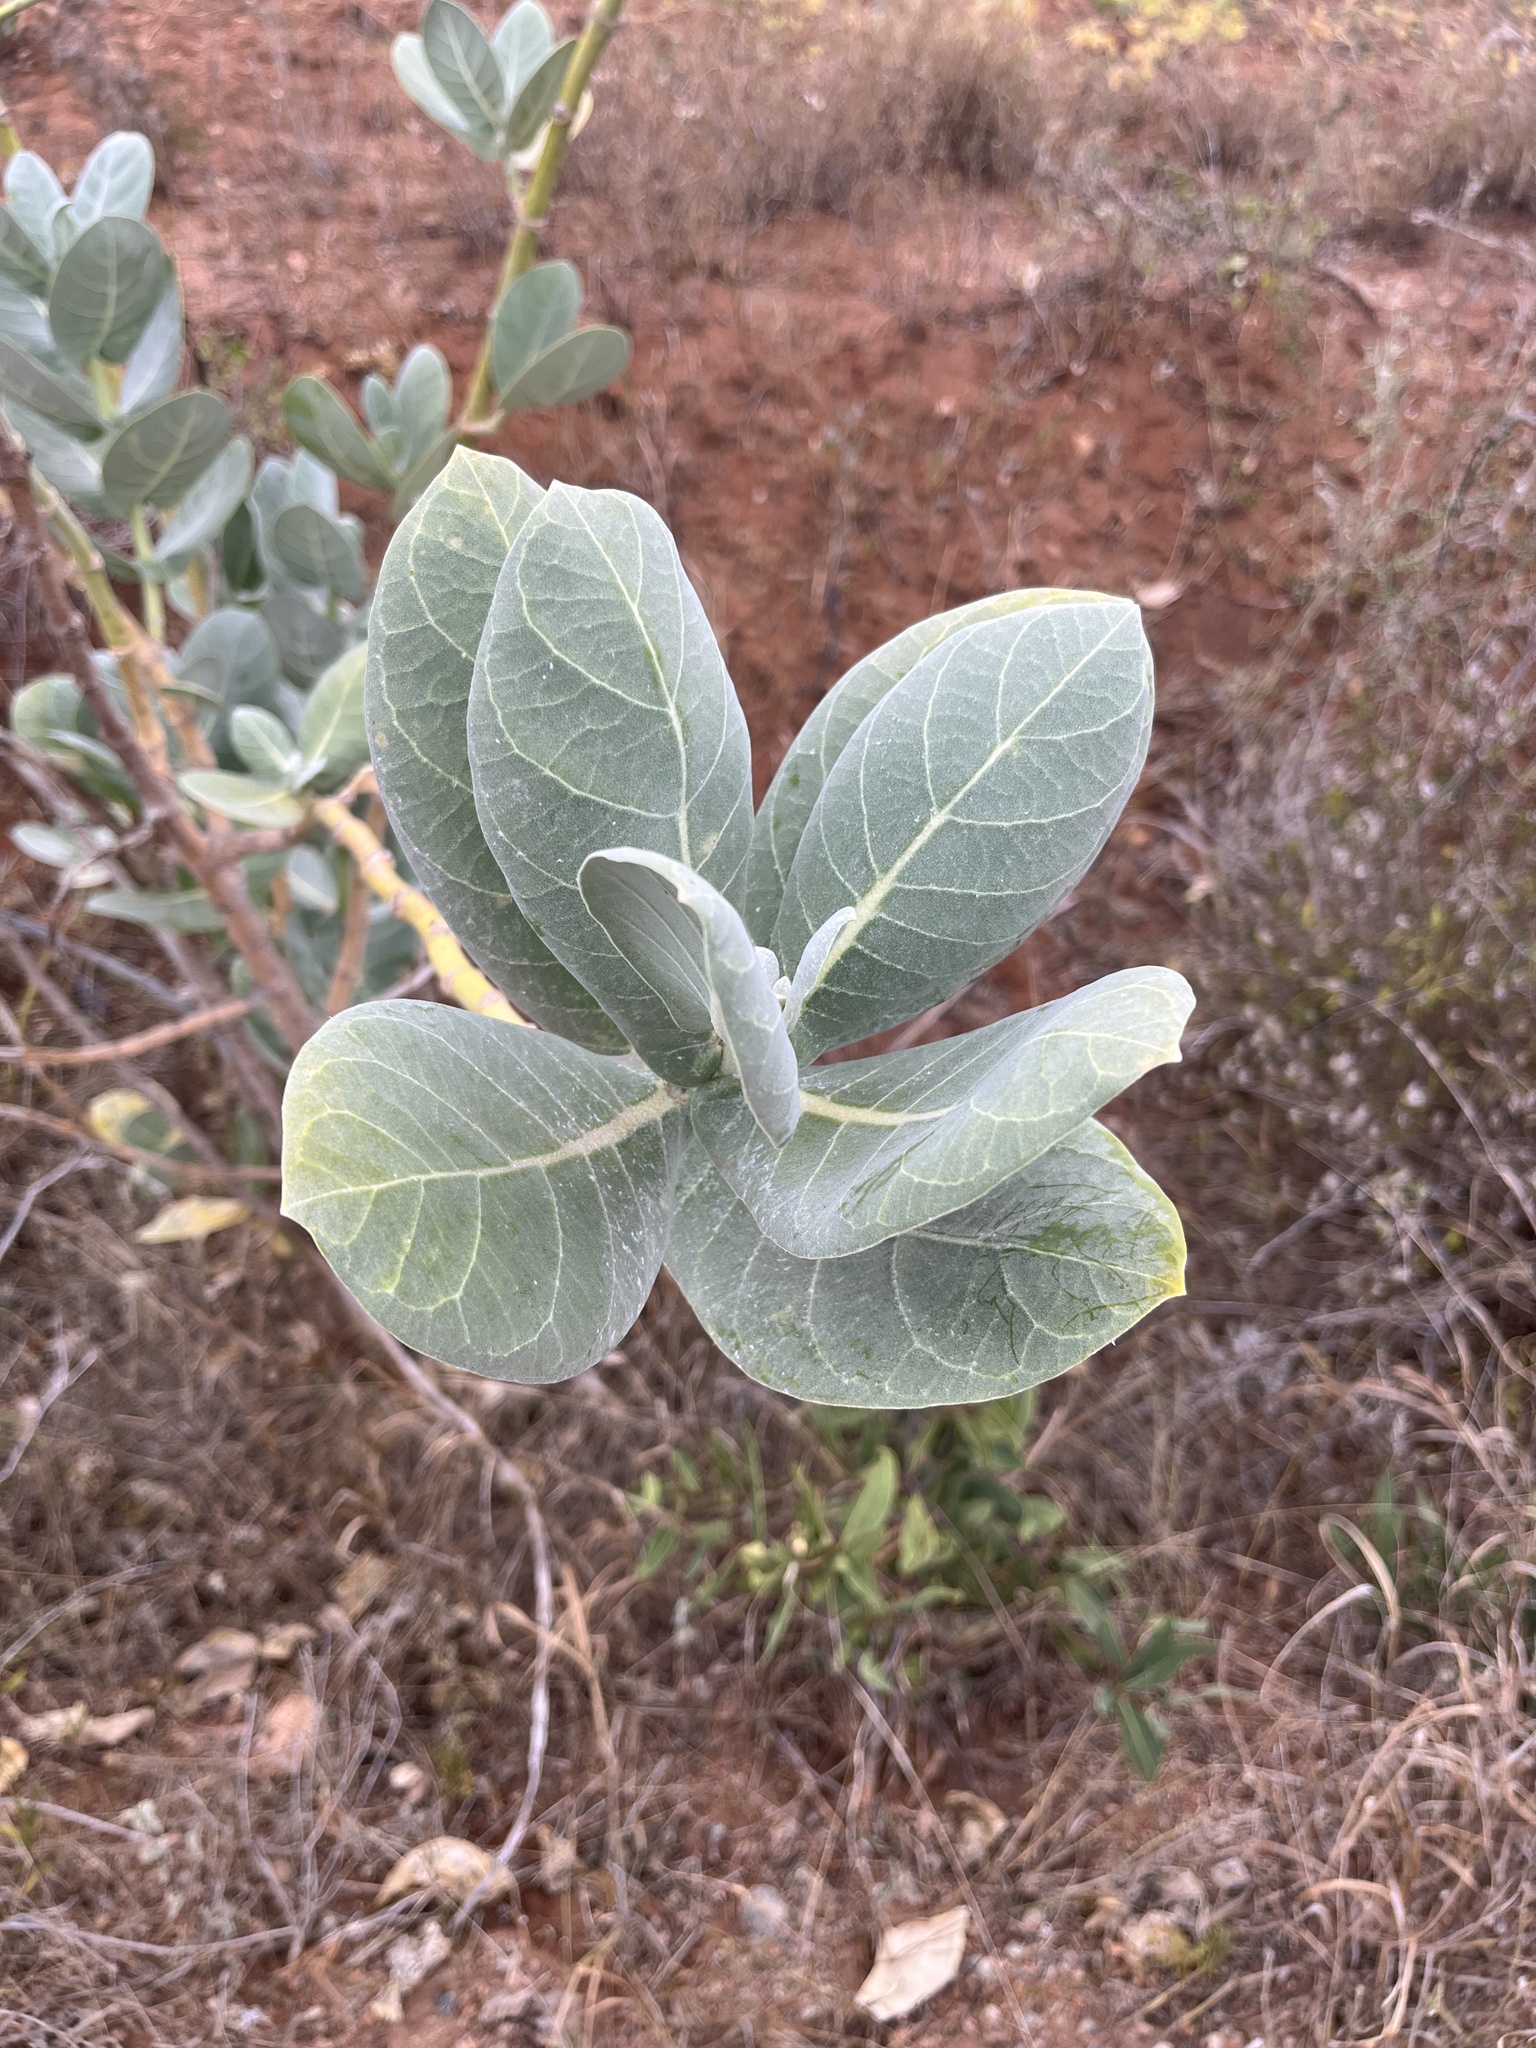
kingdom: Plantae
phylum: Tracheophyta
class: Magnoliopsida
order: Gentianales
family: Apocynaceae
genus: Calotropis
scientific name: Calotropis procera
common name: Roostertree
